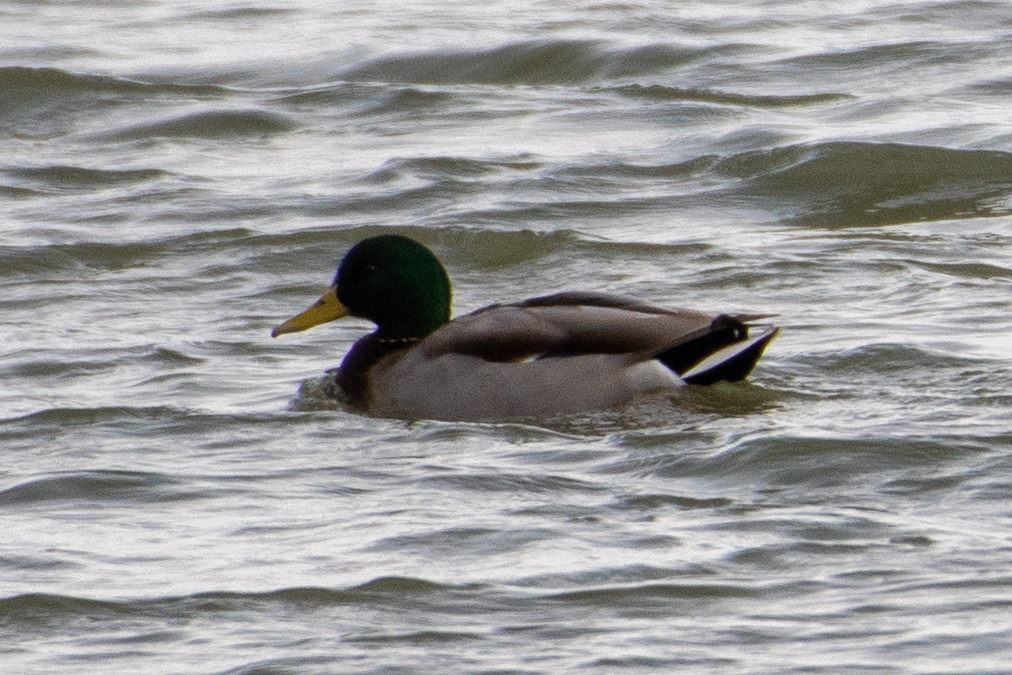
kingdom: Animalia
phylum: Chordata
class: Aves
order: Anseriformes
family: Anatidae
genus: Anas
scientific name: Anas platyrhynchos
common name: Mallard
